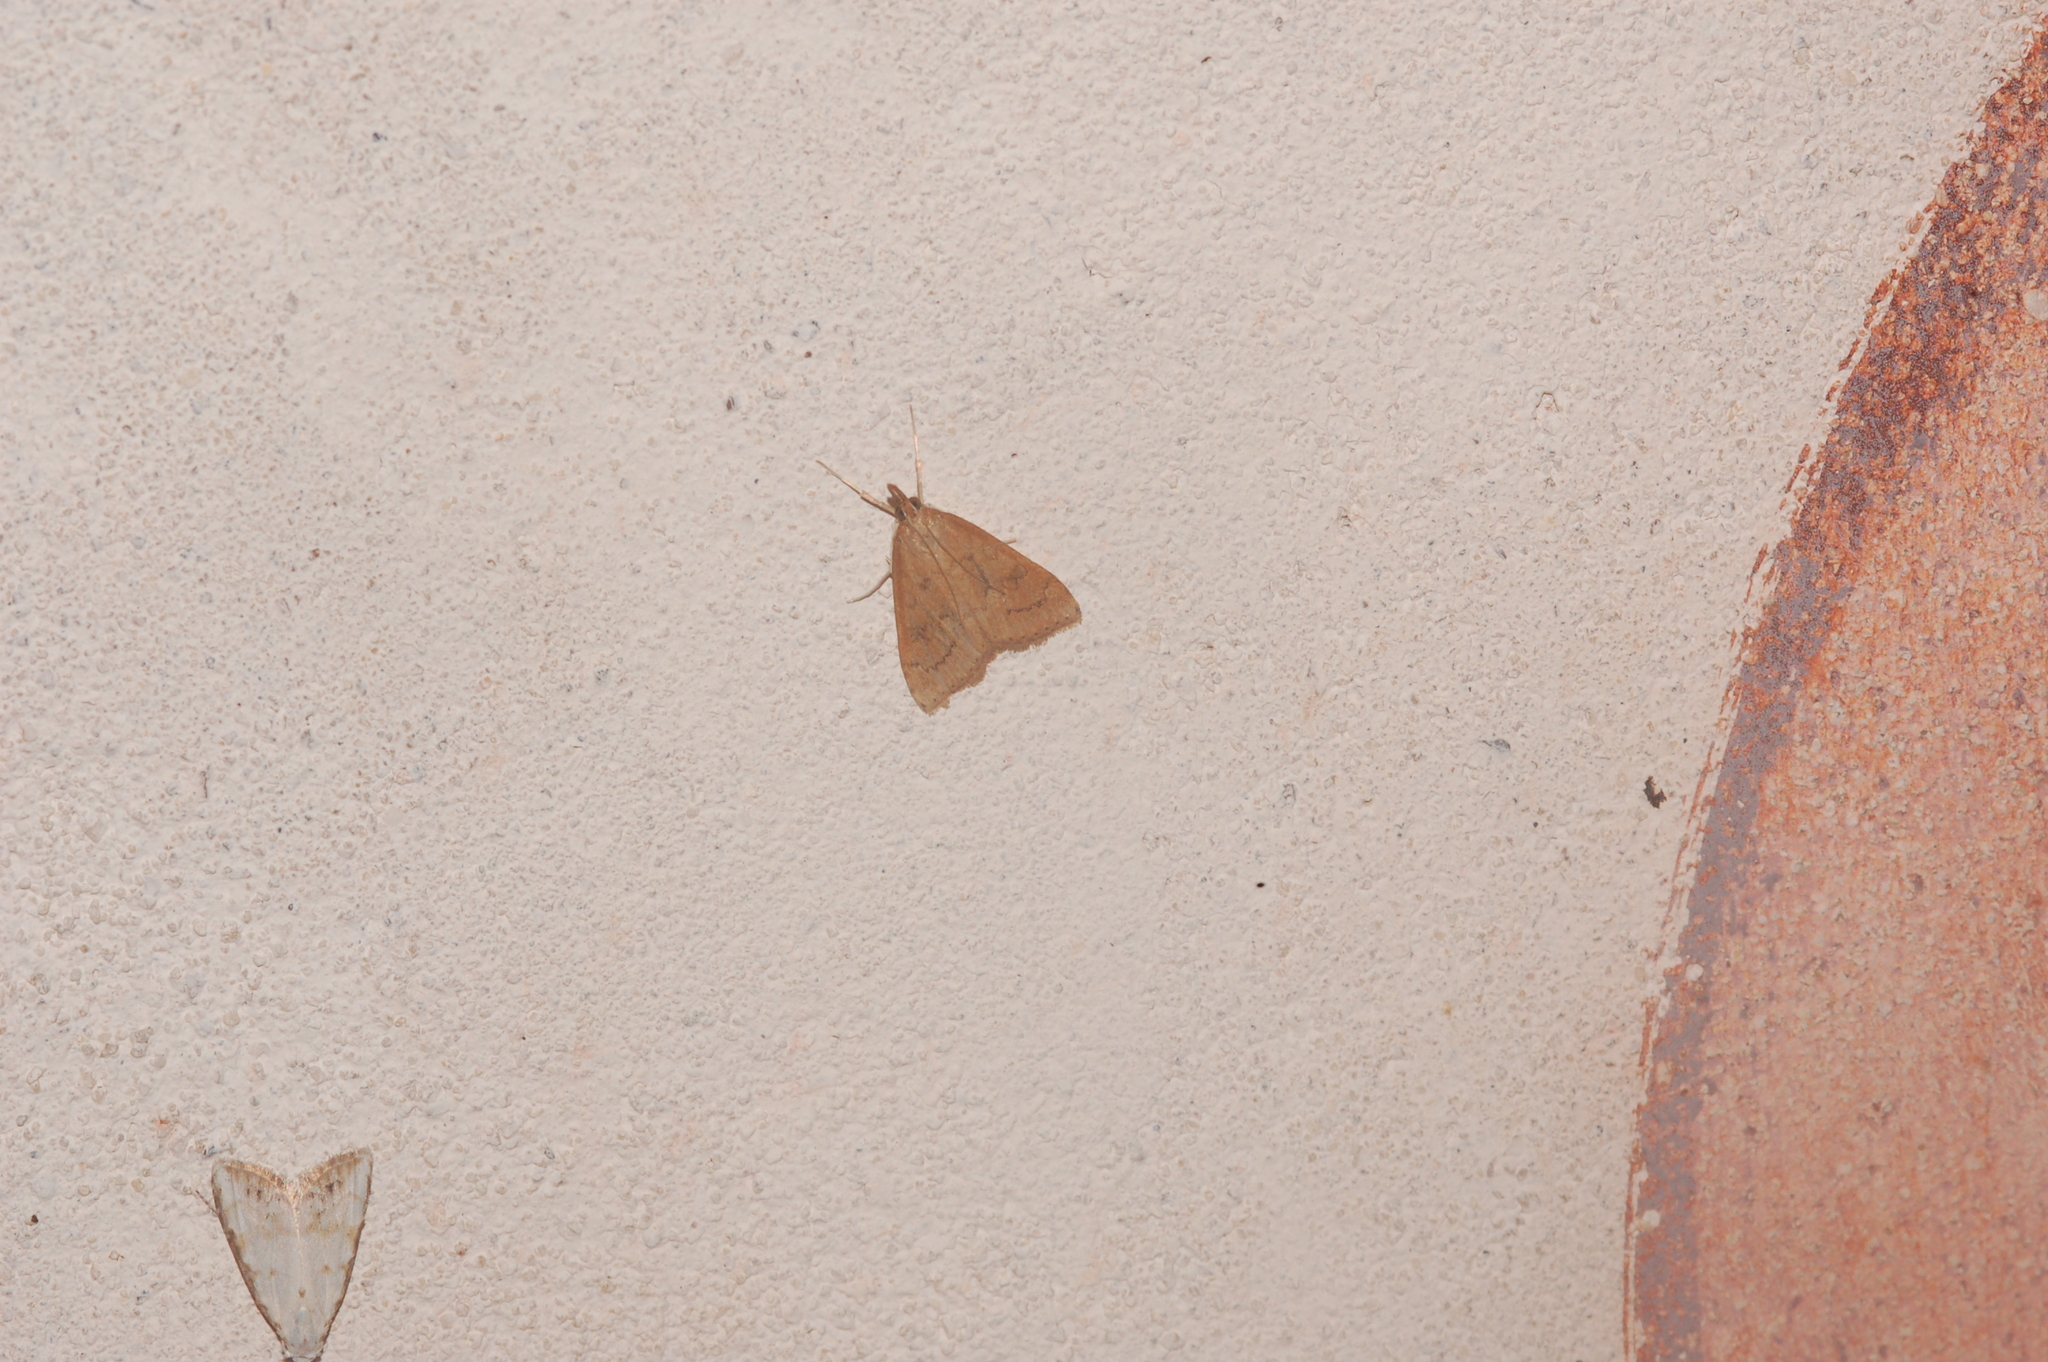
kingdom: Animalia
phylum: Arthropoda
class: Insecta
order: Lepidoptera
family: Crambidae
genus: Udea
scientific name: Udea rubigalis
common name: Celery leaftier moth
